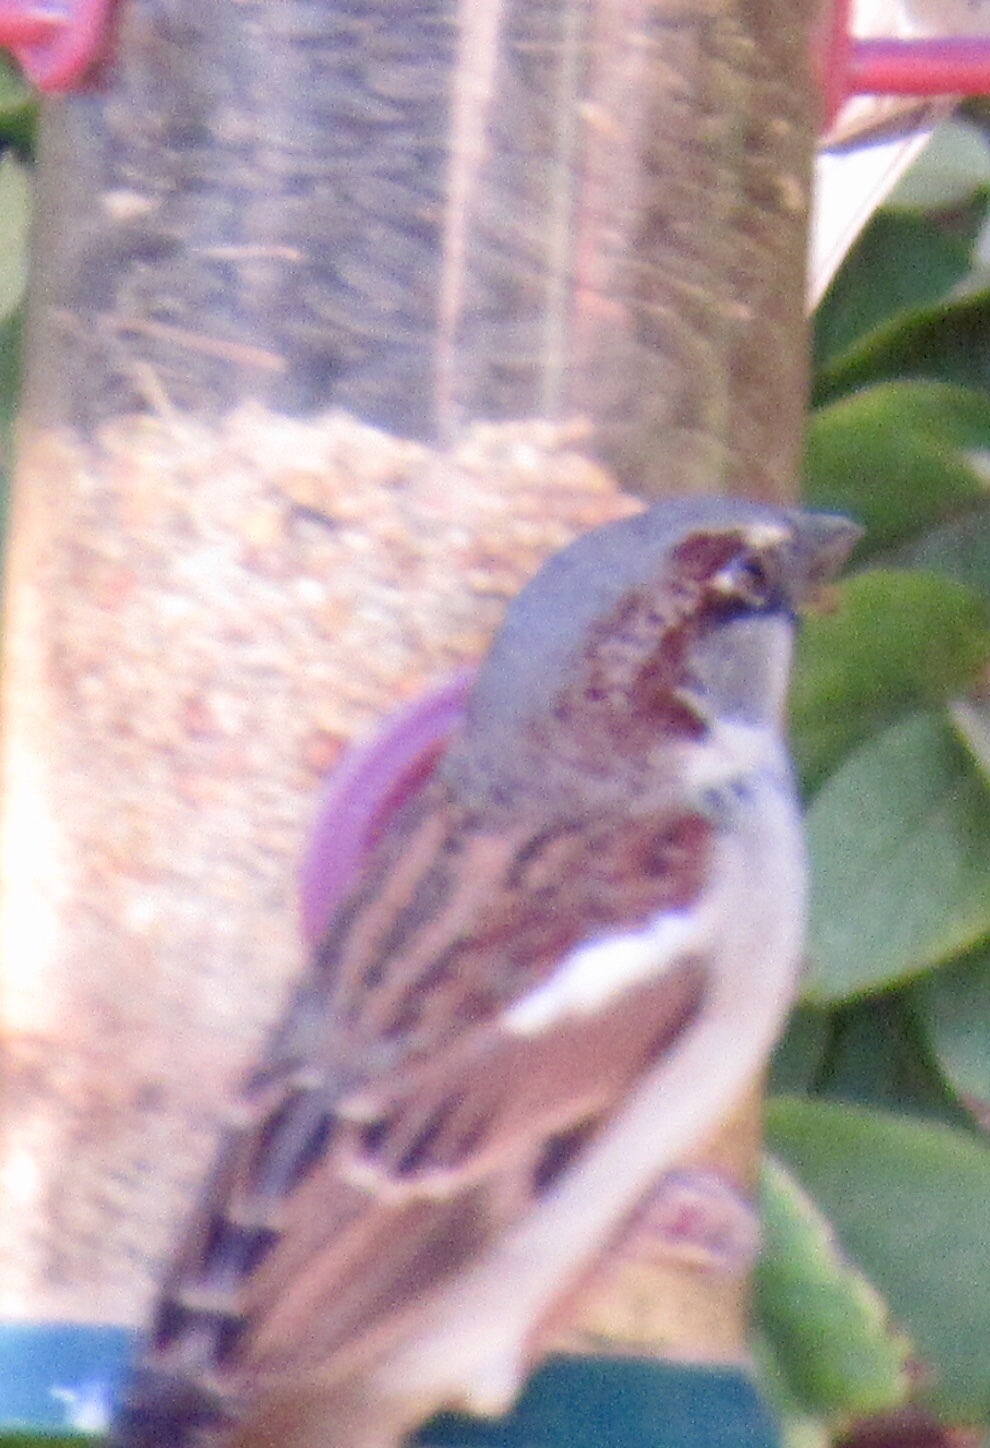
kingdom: Animalia
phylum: Chordata
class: Aves
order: Passeriformes
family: Passeridae
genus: Passer
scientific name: Passer domesticus
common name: House sparrow
